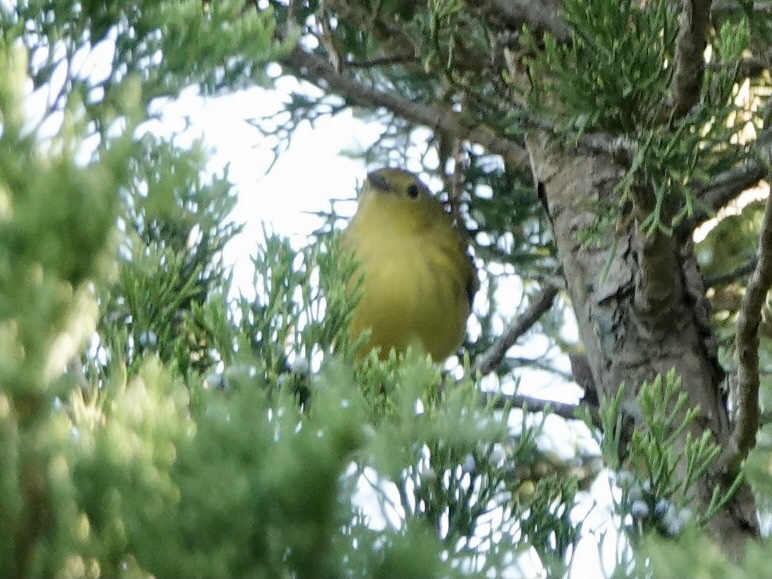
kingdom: Animalia
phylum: Chordata
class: Aves
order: Passeriformes
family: Parulidae
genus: Setophaga
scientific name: Setophaga petechia
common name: Yellow warbler
